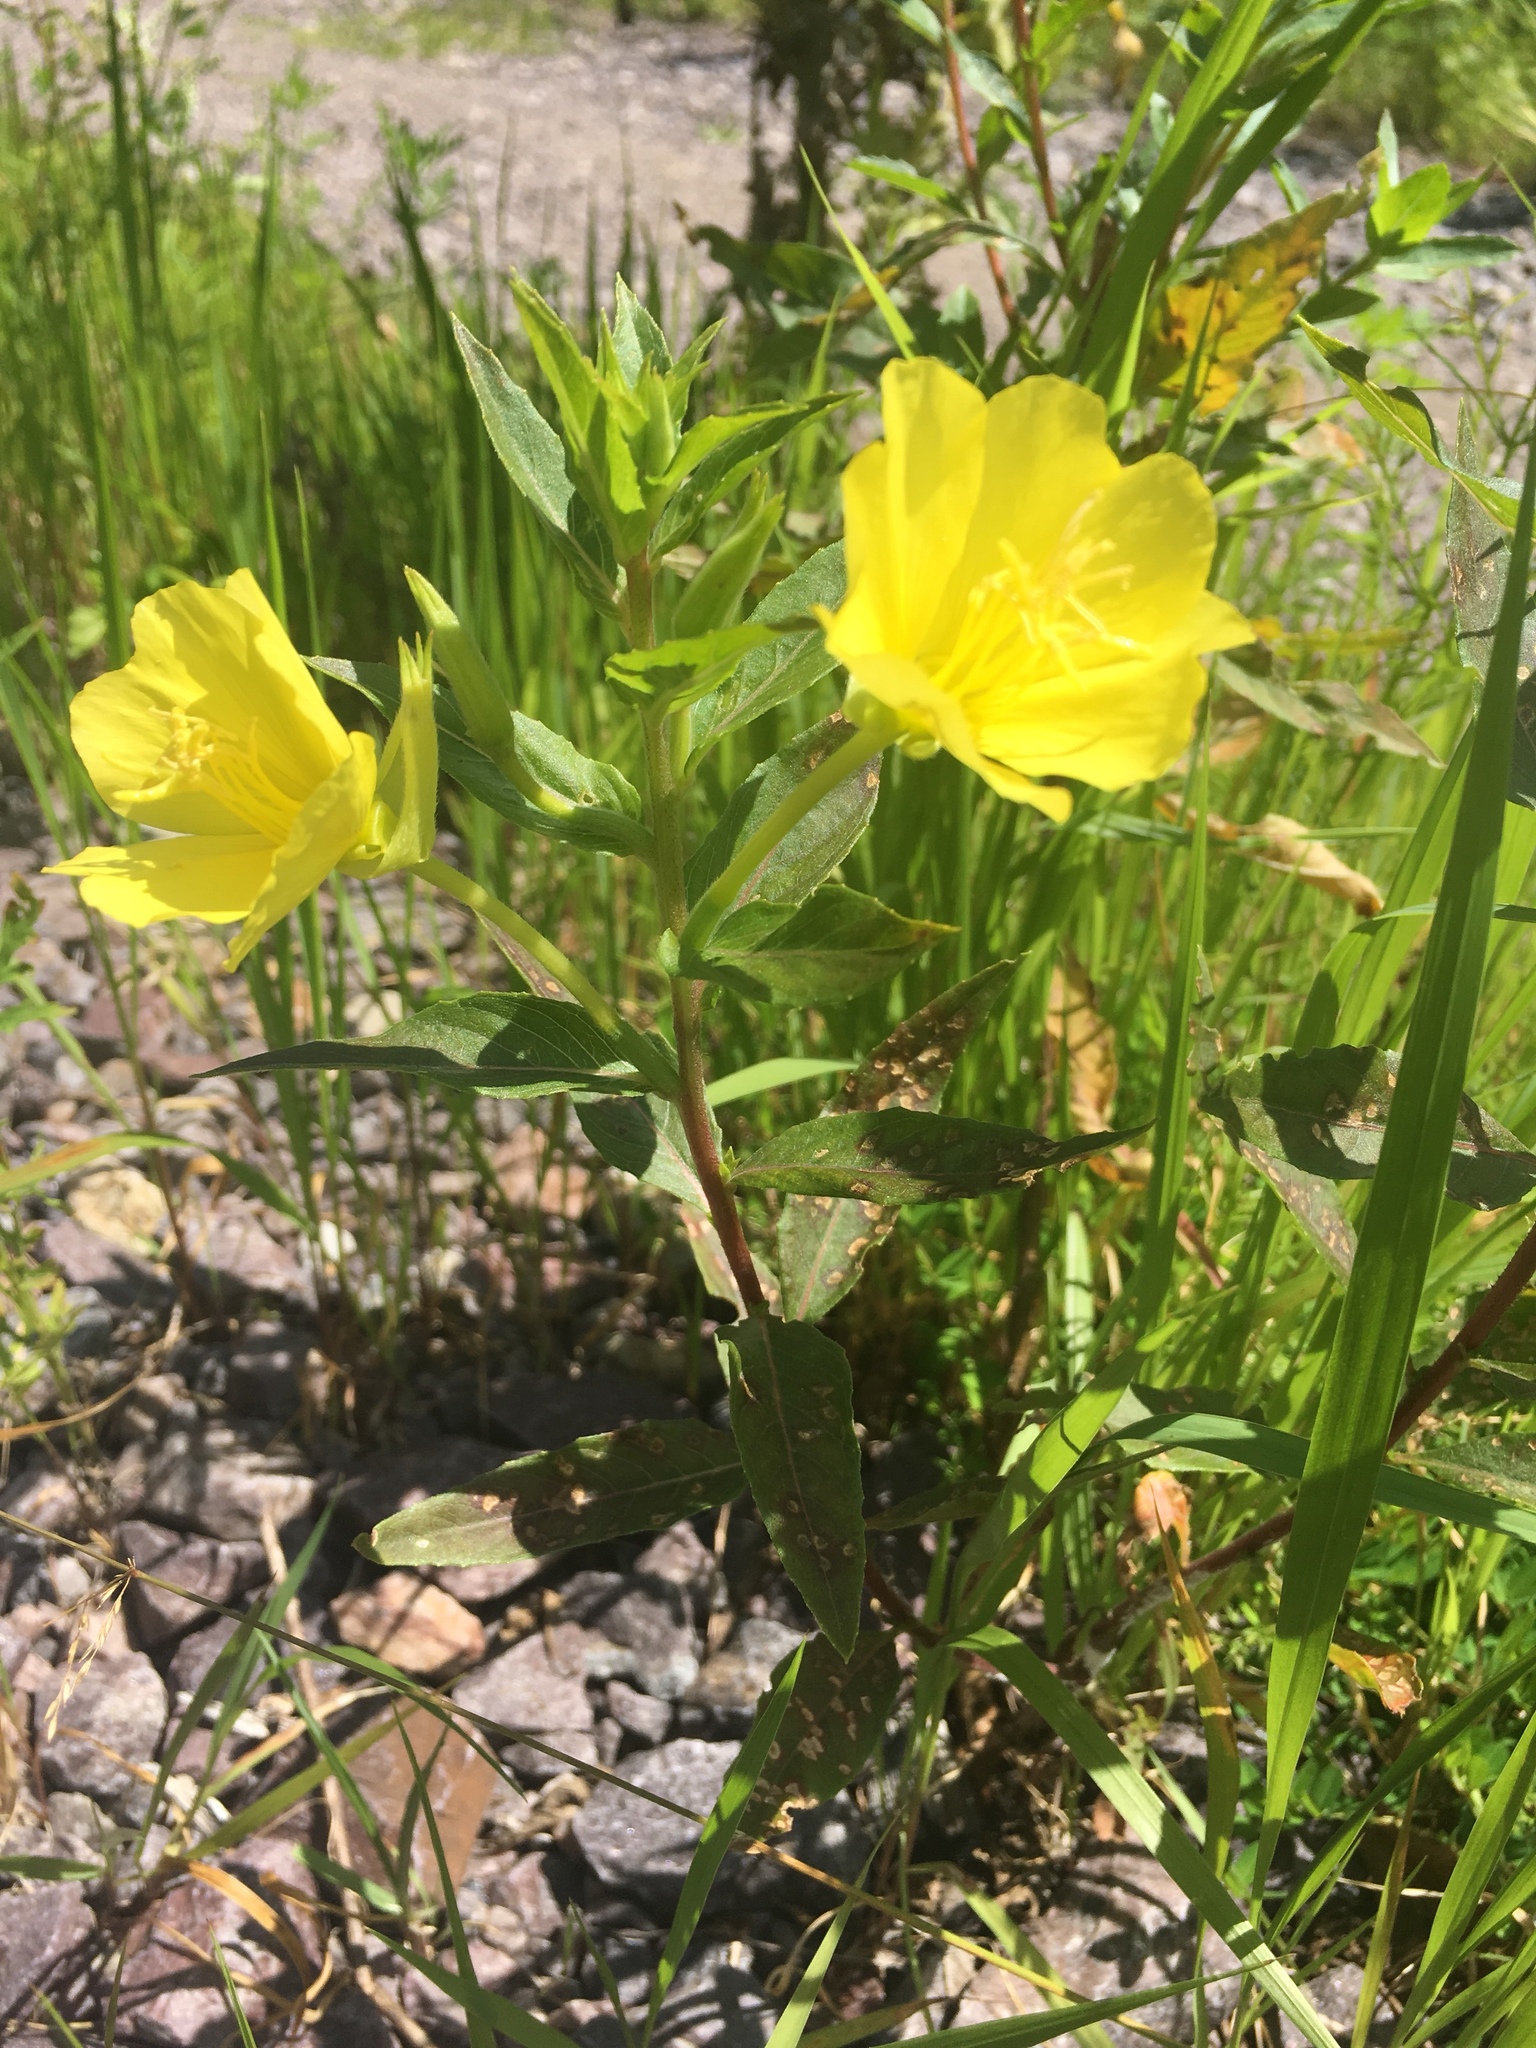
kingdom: Plantae
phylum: Tracheophyta
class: Magnoliopsida
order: Myrtales
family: Onagraceae
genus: Oenothera
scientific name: Oenothera biennis
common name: Common evening-primrose
